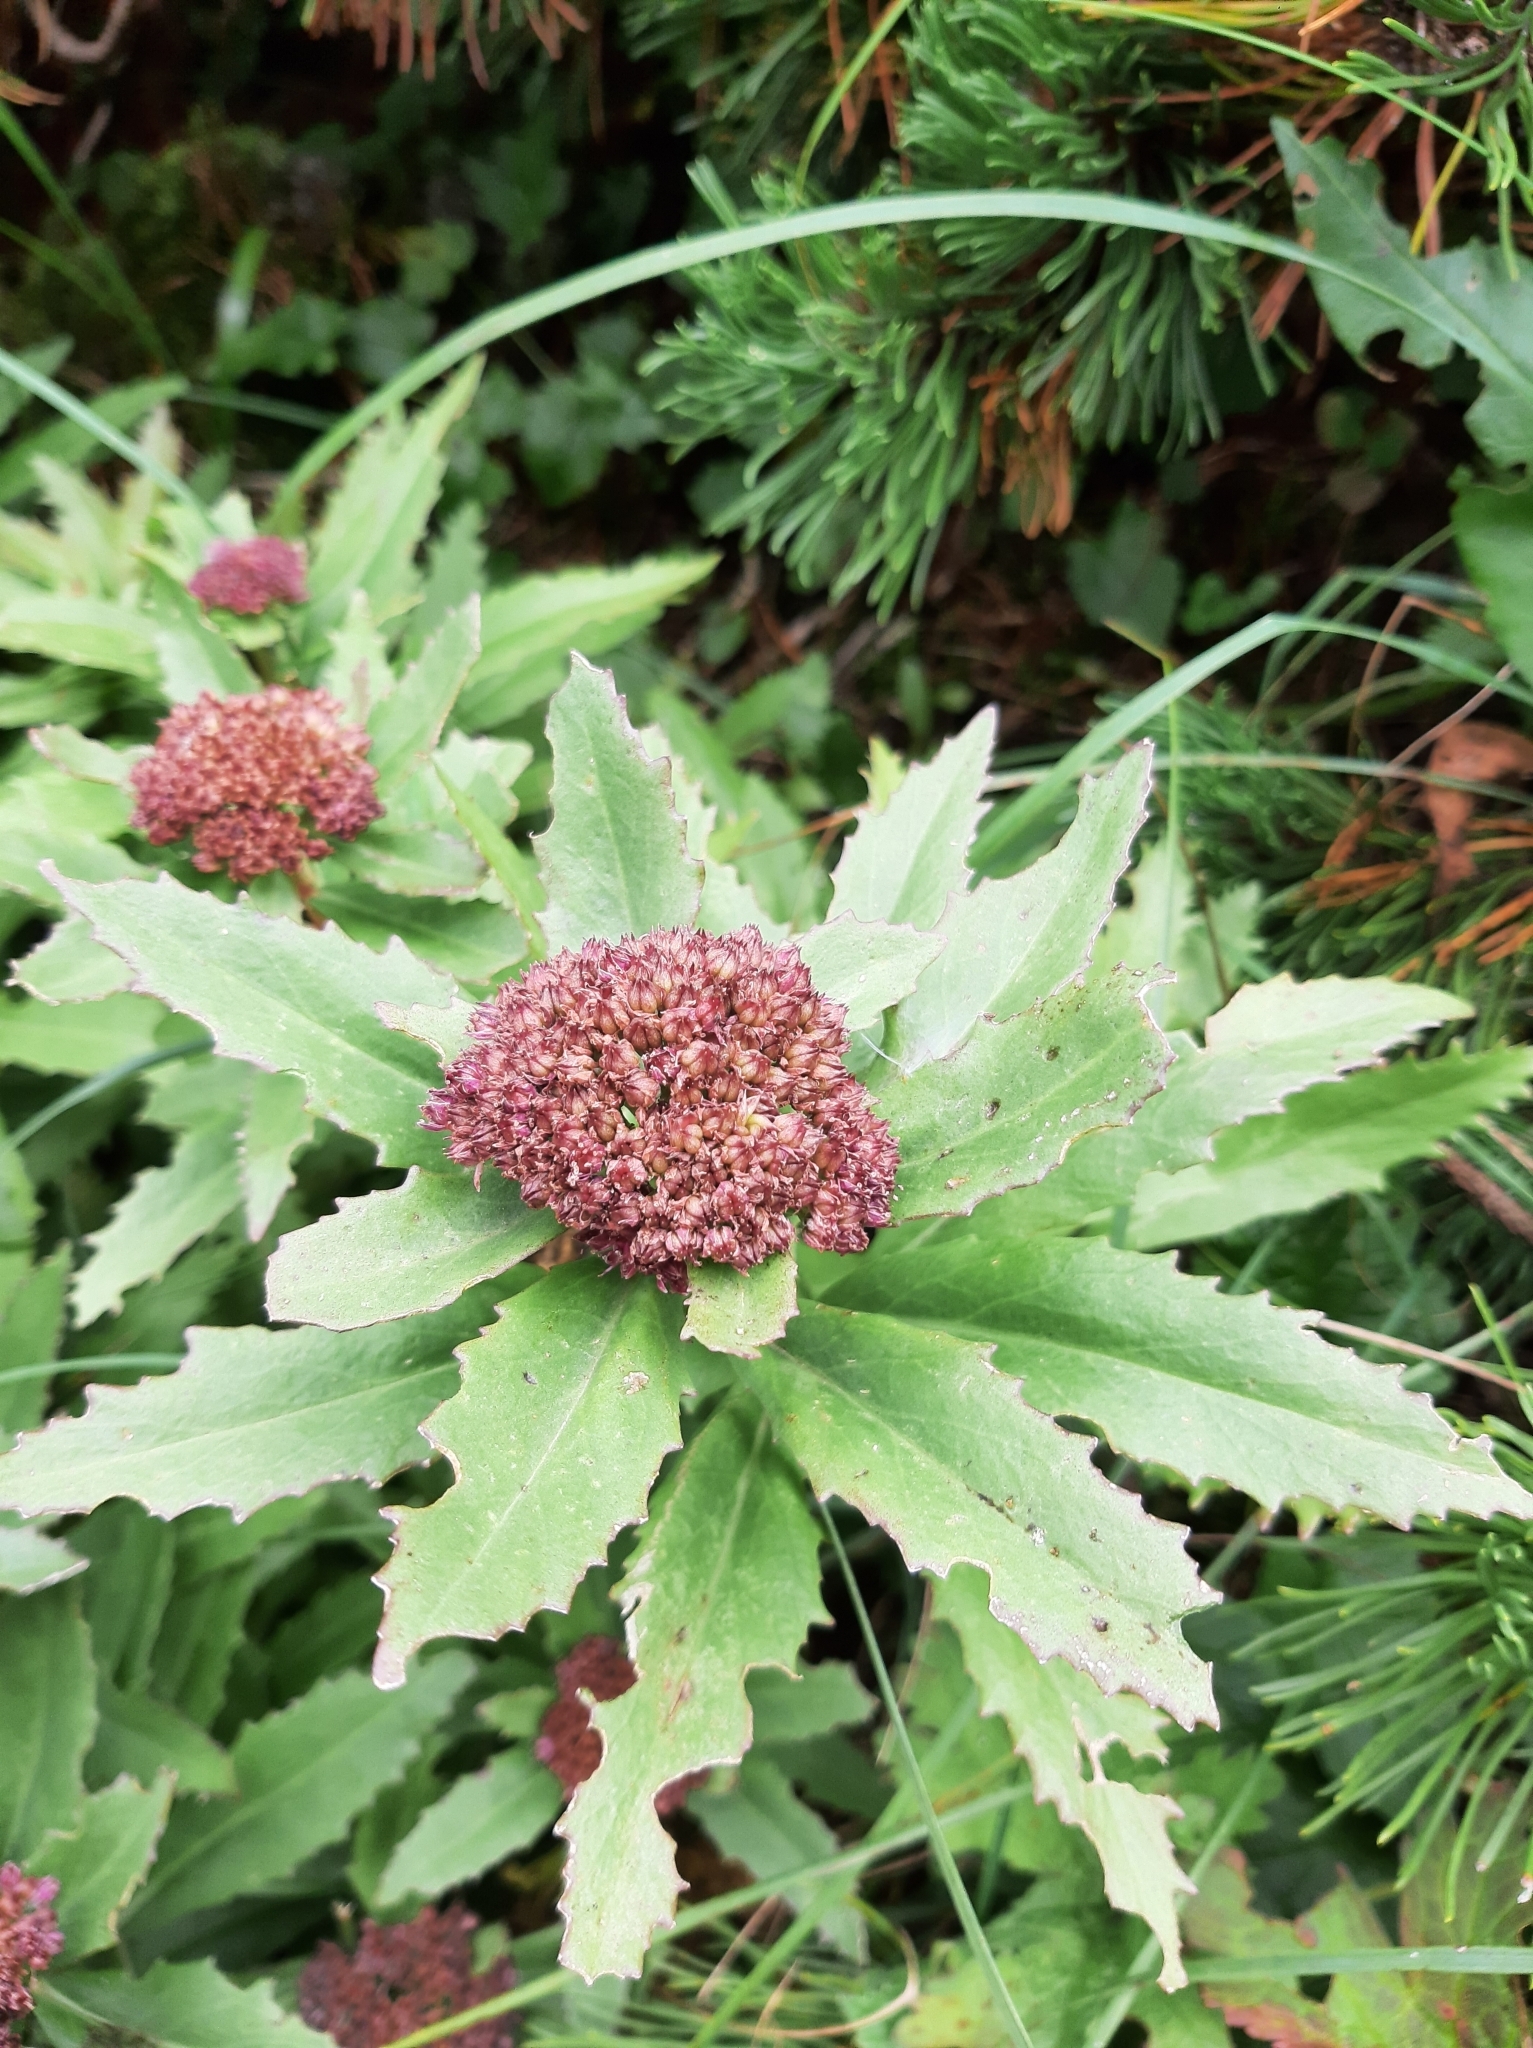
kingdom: Plantae
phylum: Tracheophyta
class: Magnoliopsida
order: Saxifragales
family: Crassulaceae
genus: Hylotelephium
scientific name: Hylotelephium vulgare
